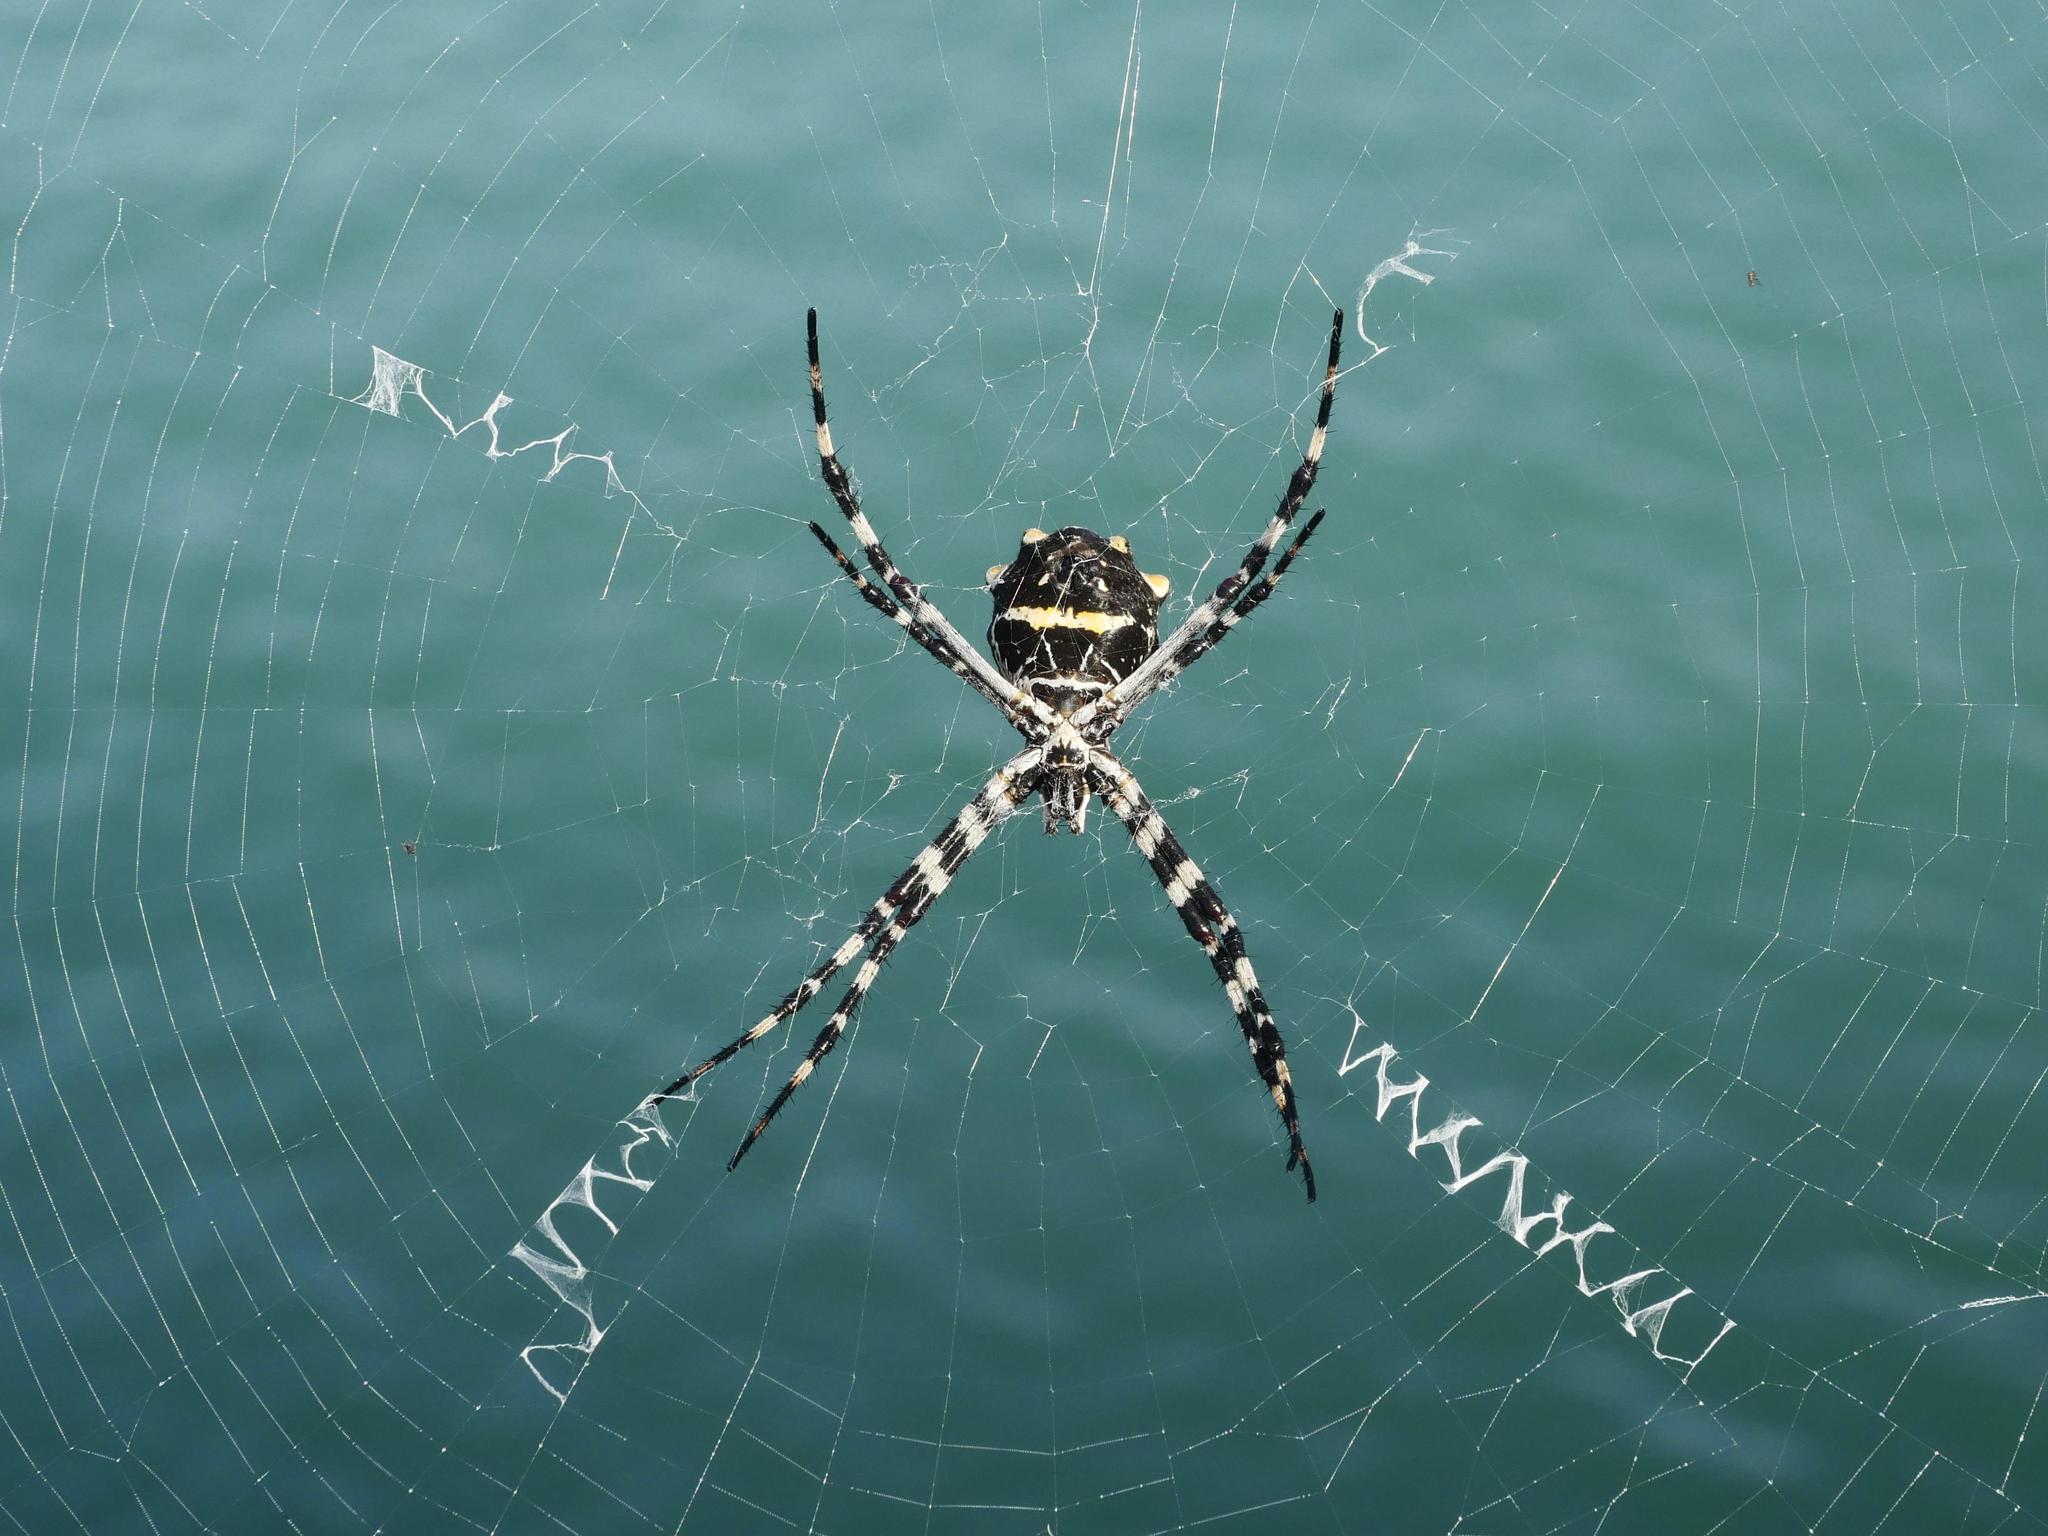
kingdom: Animalia
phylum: Arthropoda
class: Arachnida
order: Araneae
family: Araneidae
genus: Argiope
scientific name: Argiope argentata
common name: Orb weavers
